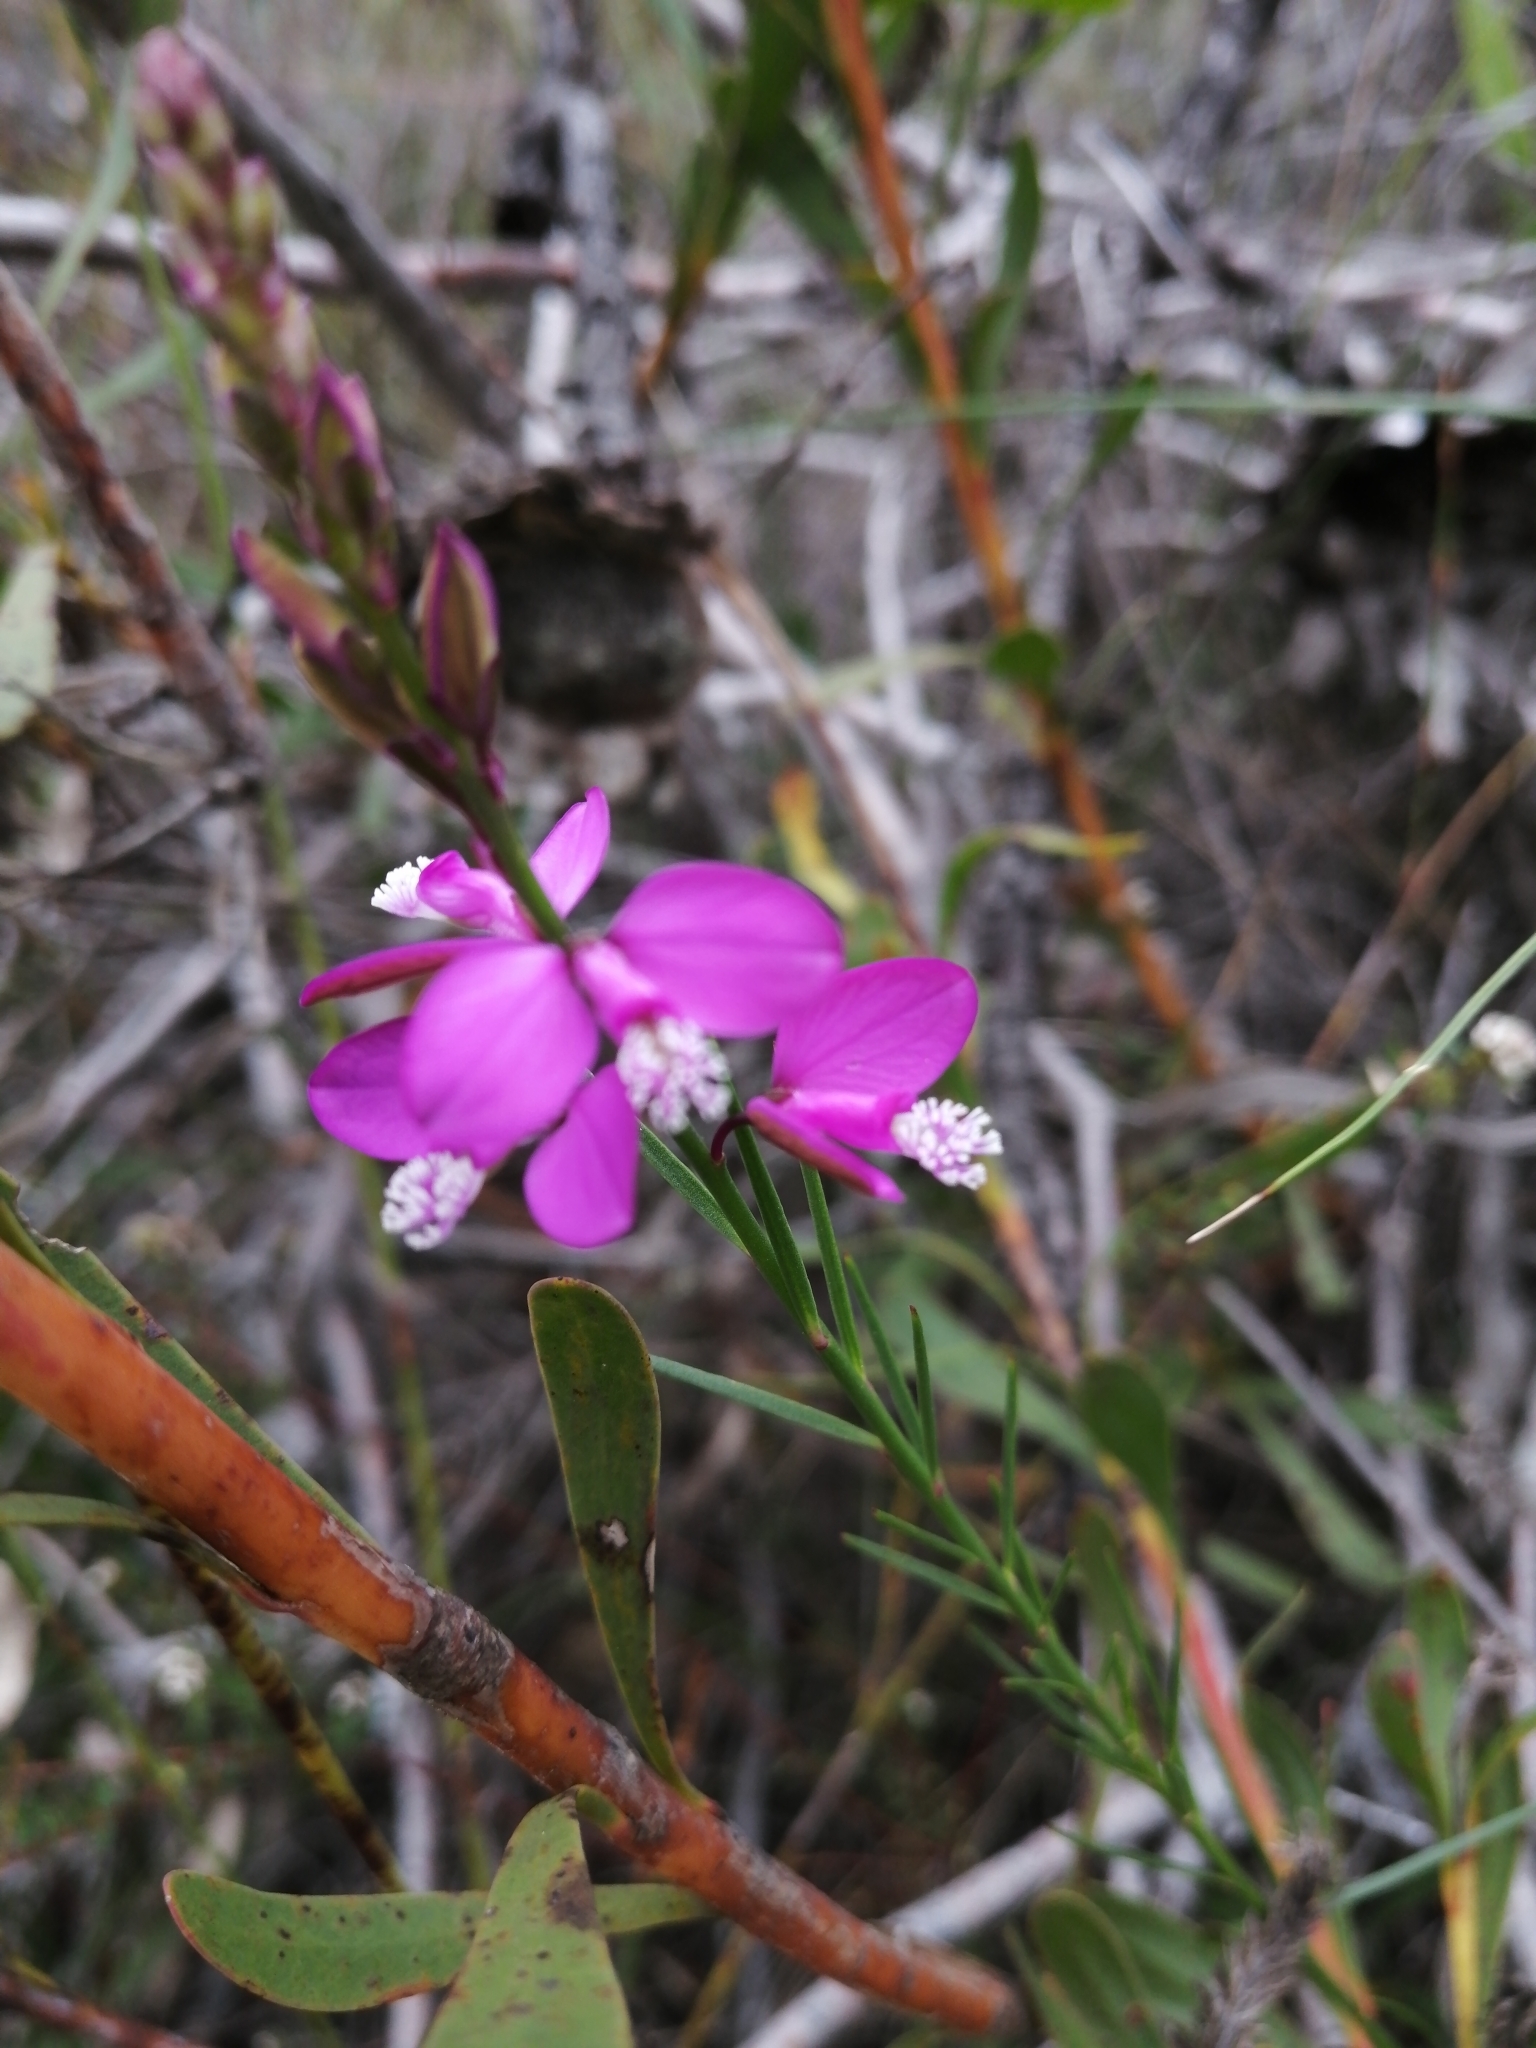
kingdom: Plantae
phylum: Tracheophyta
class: Magnoliopsida
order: Fabales
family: Polygalaceae
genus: Polygala
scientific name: Polygala garcini
